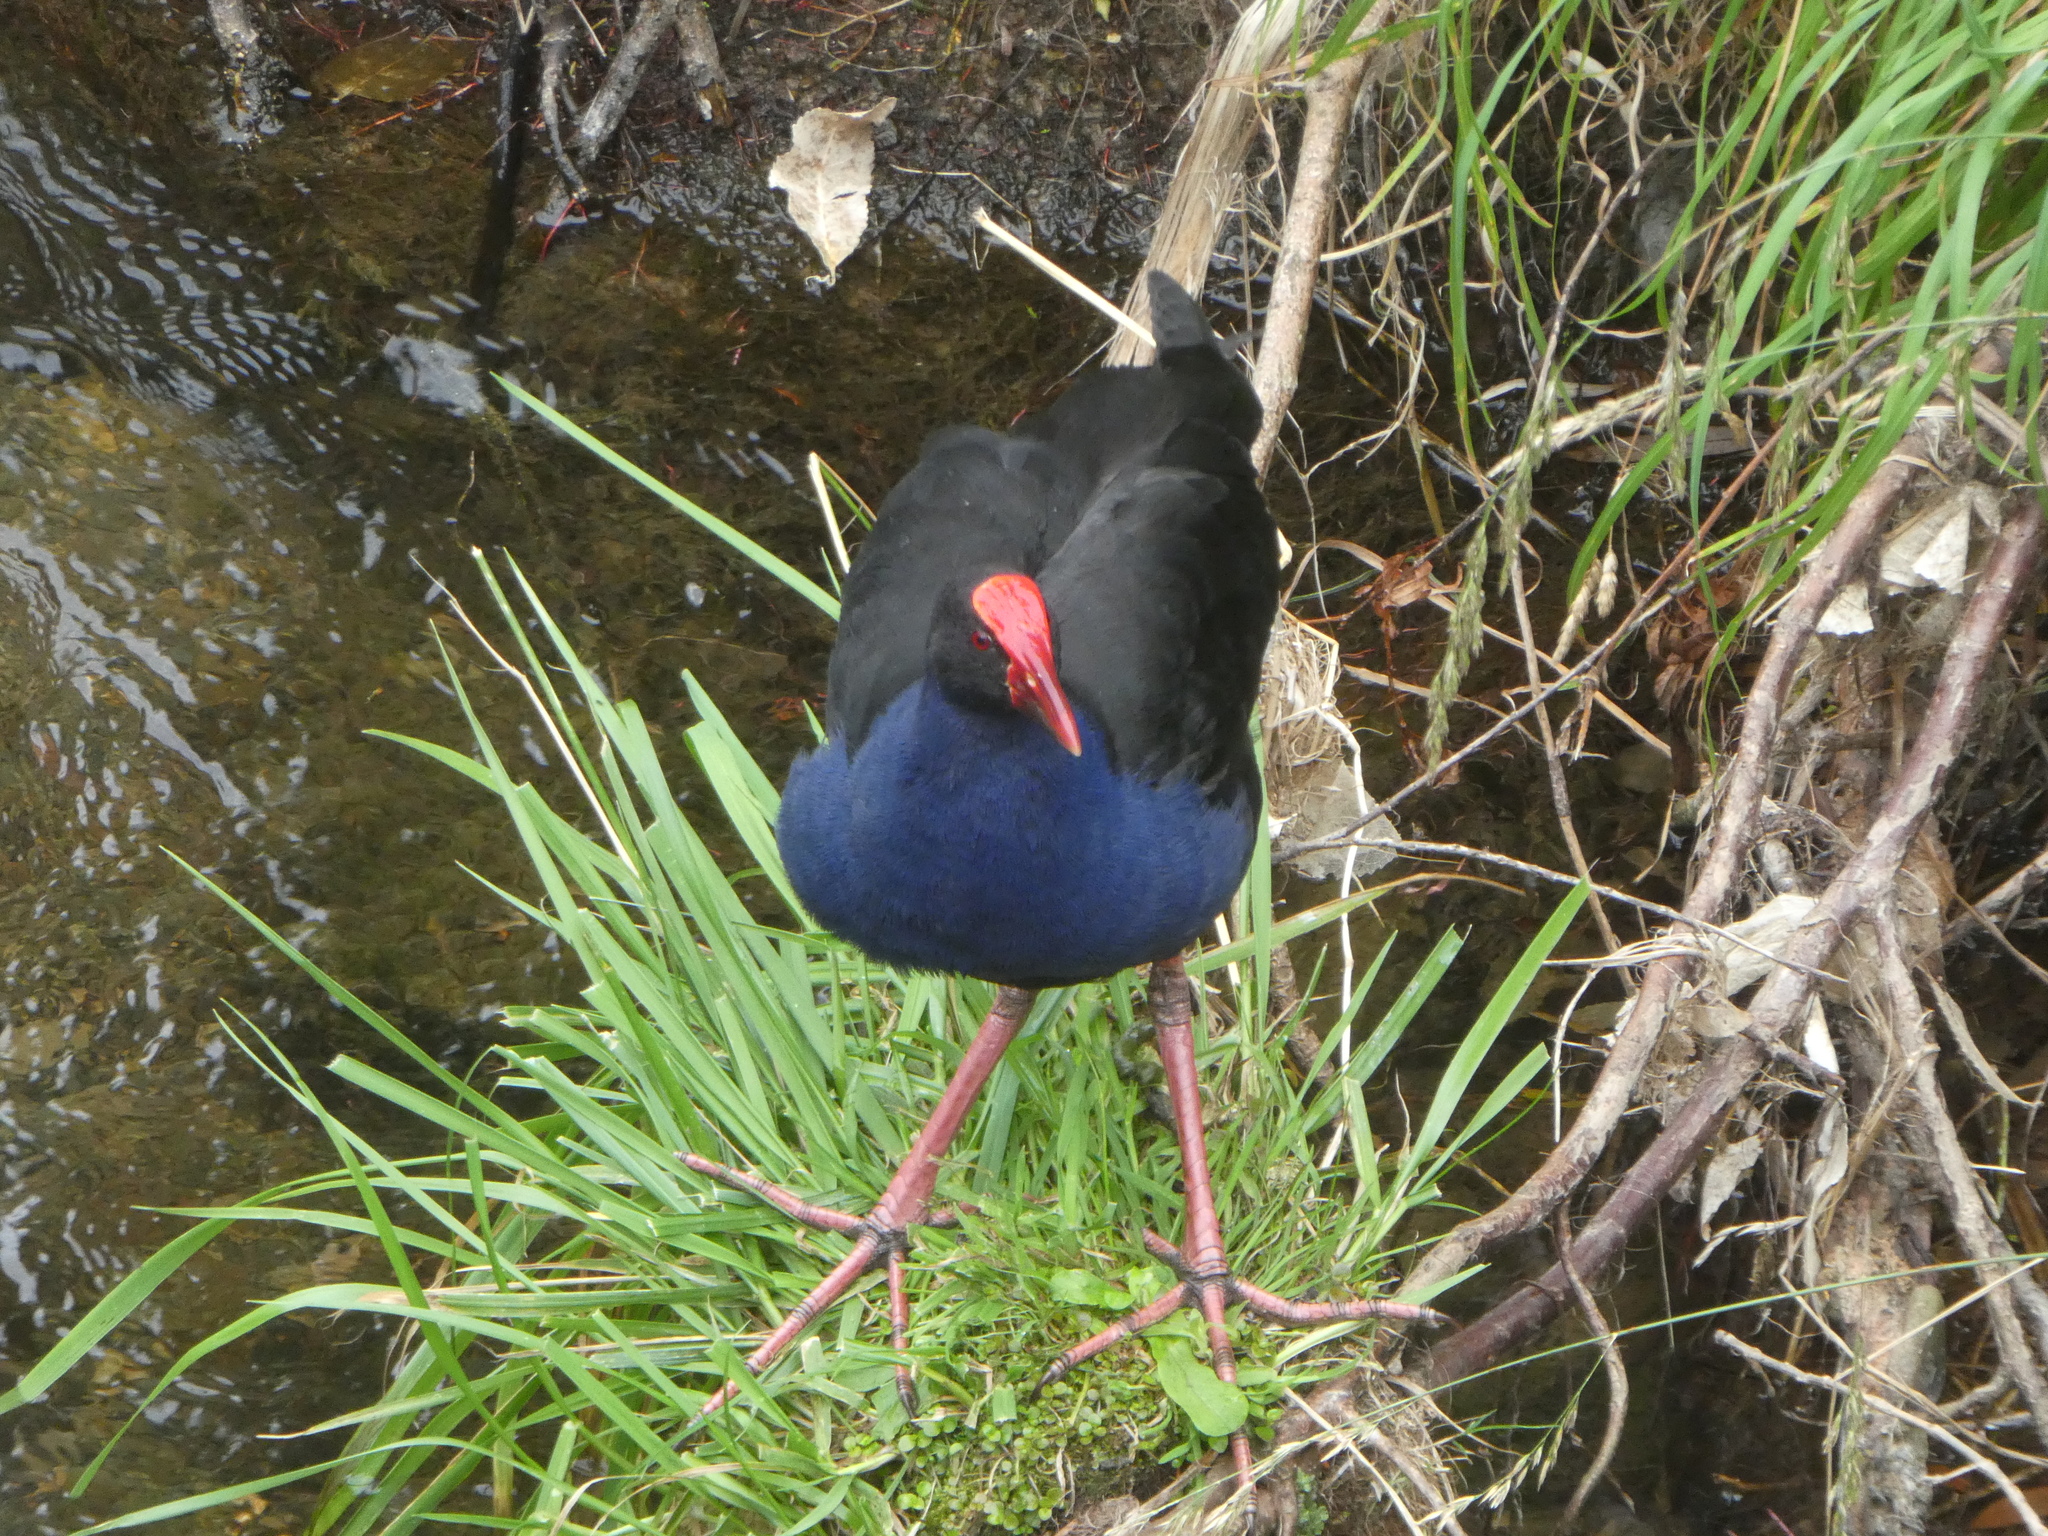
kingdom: Animalia
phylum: Chordata
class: Aves
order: Gruiformes
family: Rallidae
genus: Porphyrio
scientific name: Porphyrio melanotus
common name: Australasian swamphen
